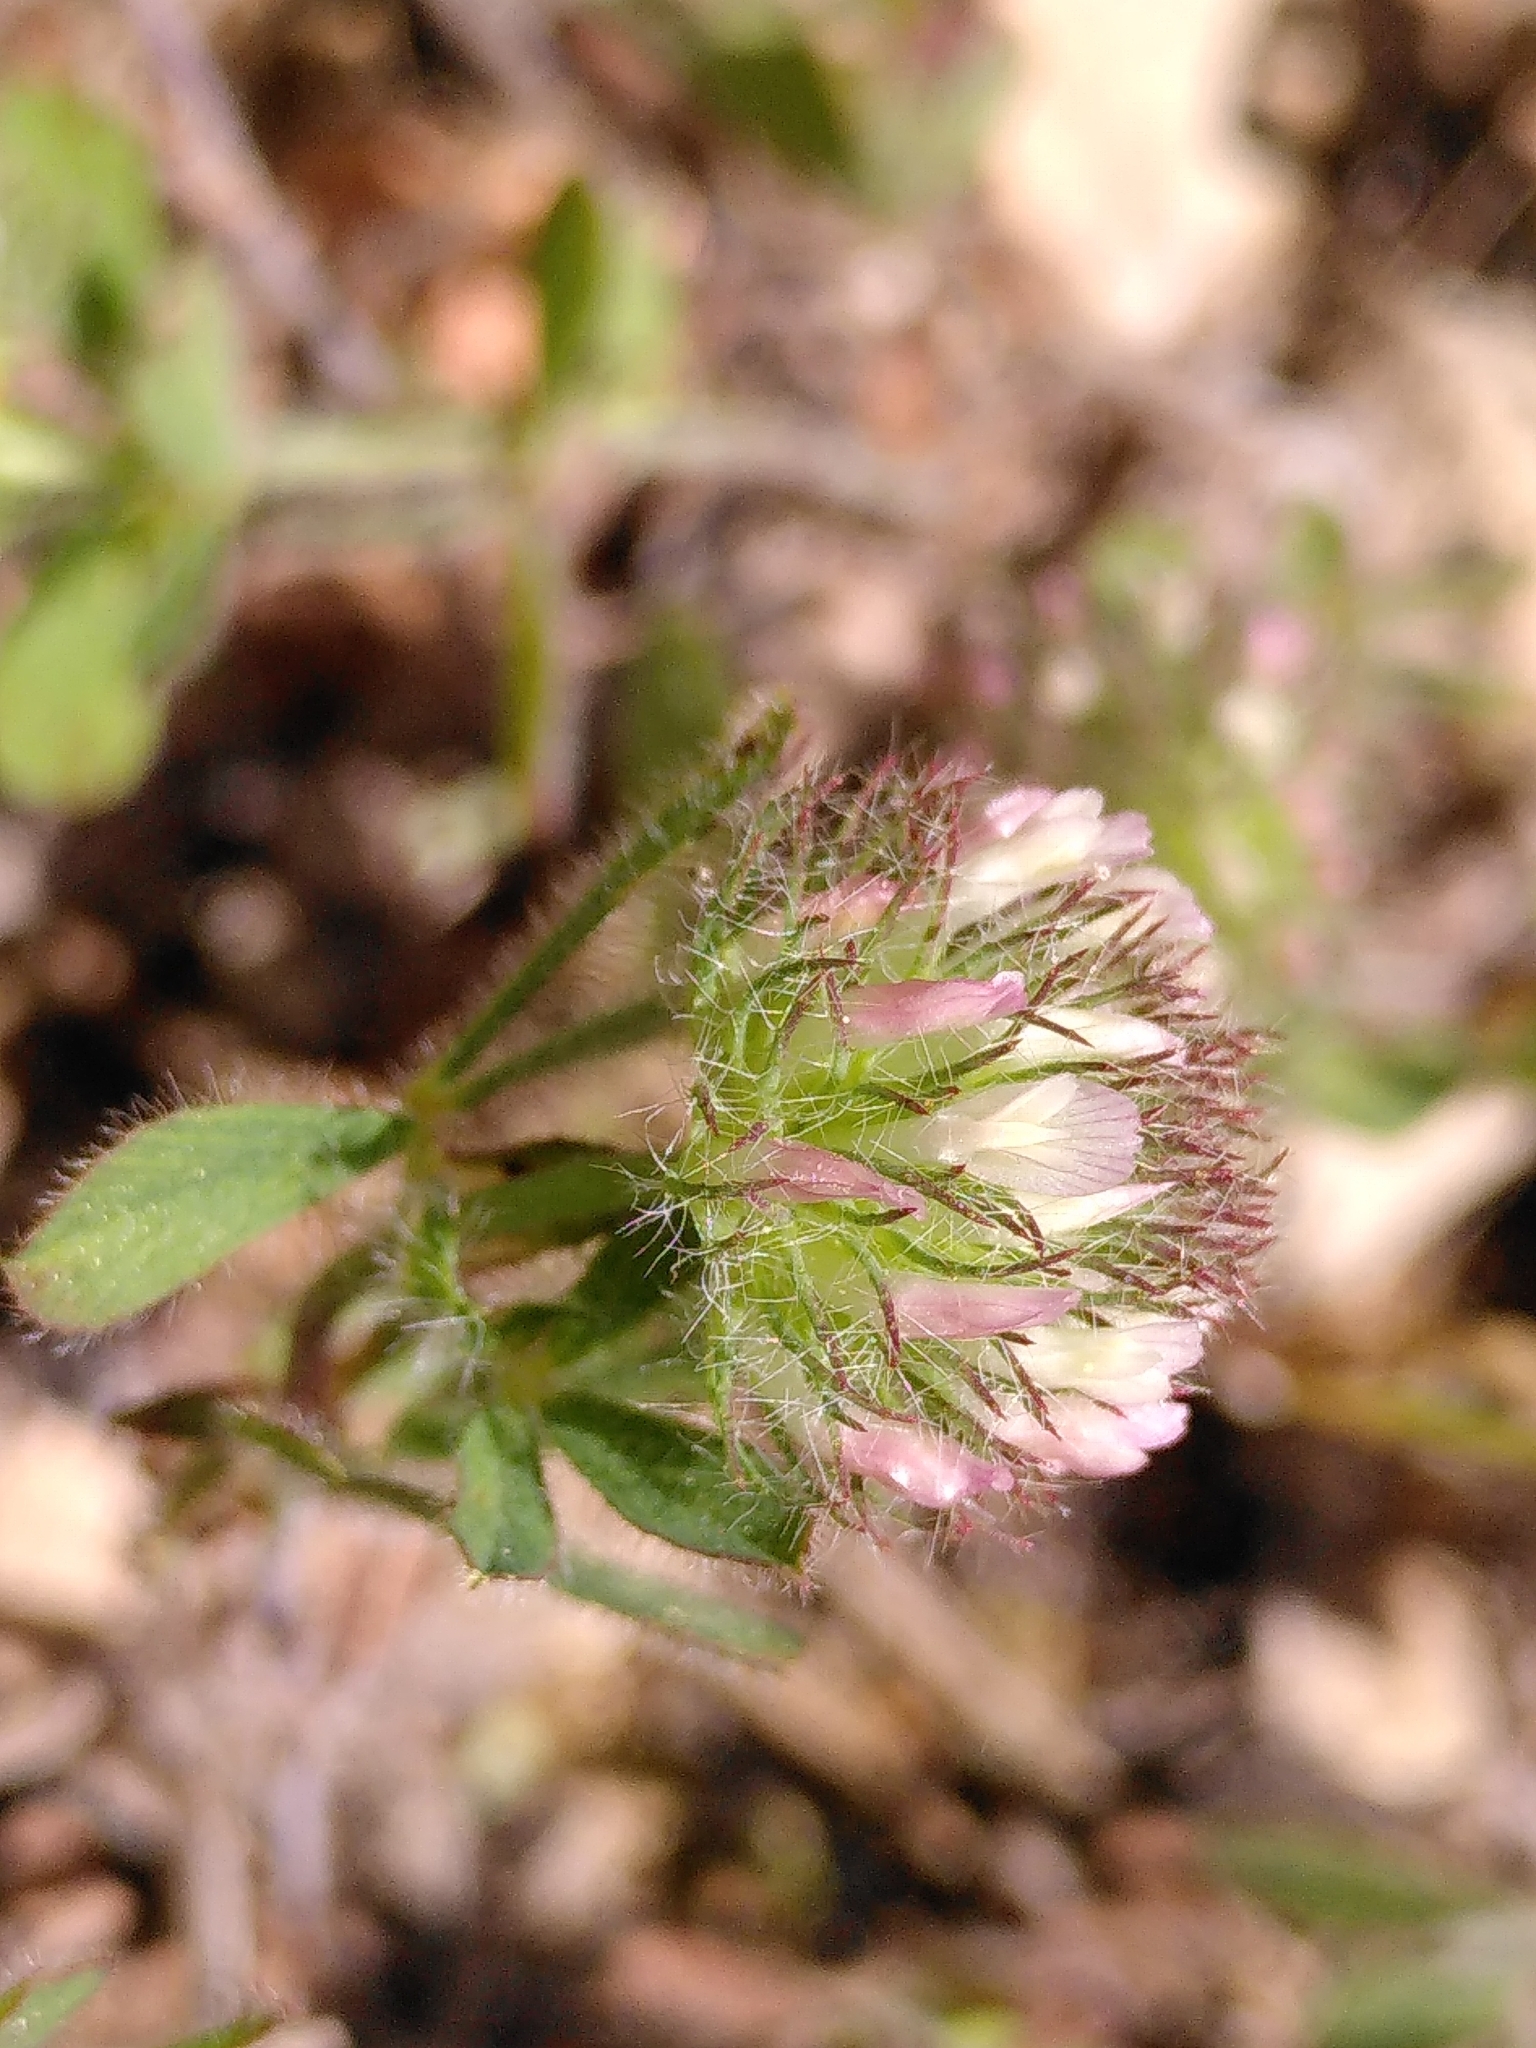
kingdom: Plantae
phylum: Tracheophyta
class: Magnoliopsida
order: Fabales
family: Fabaceae
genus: Trifolium
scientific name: Trifolium cherleri
